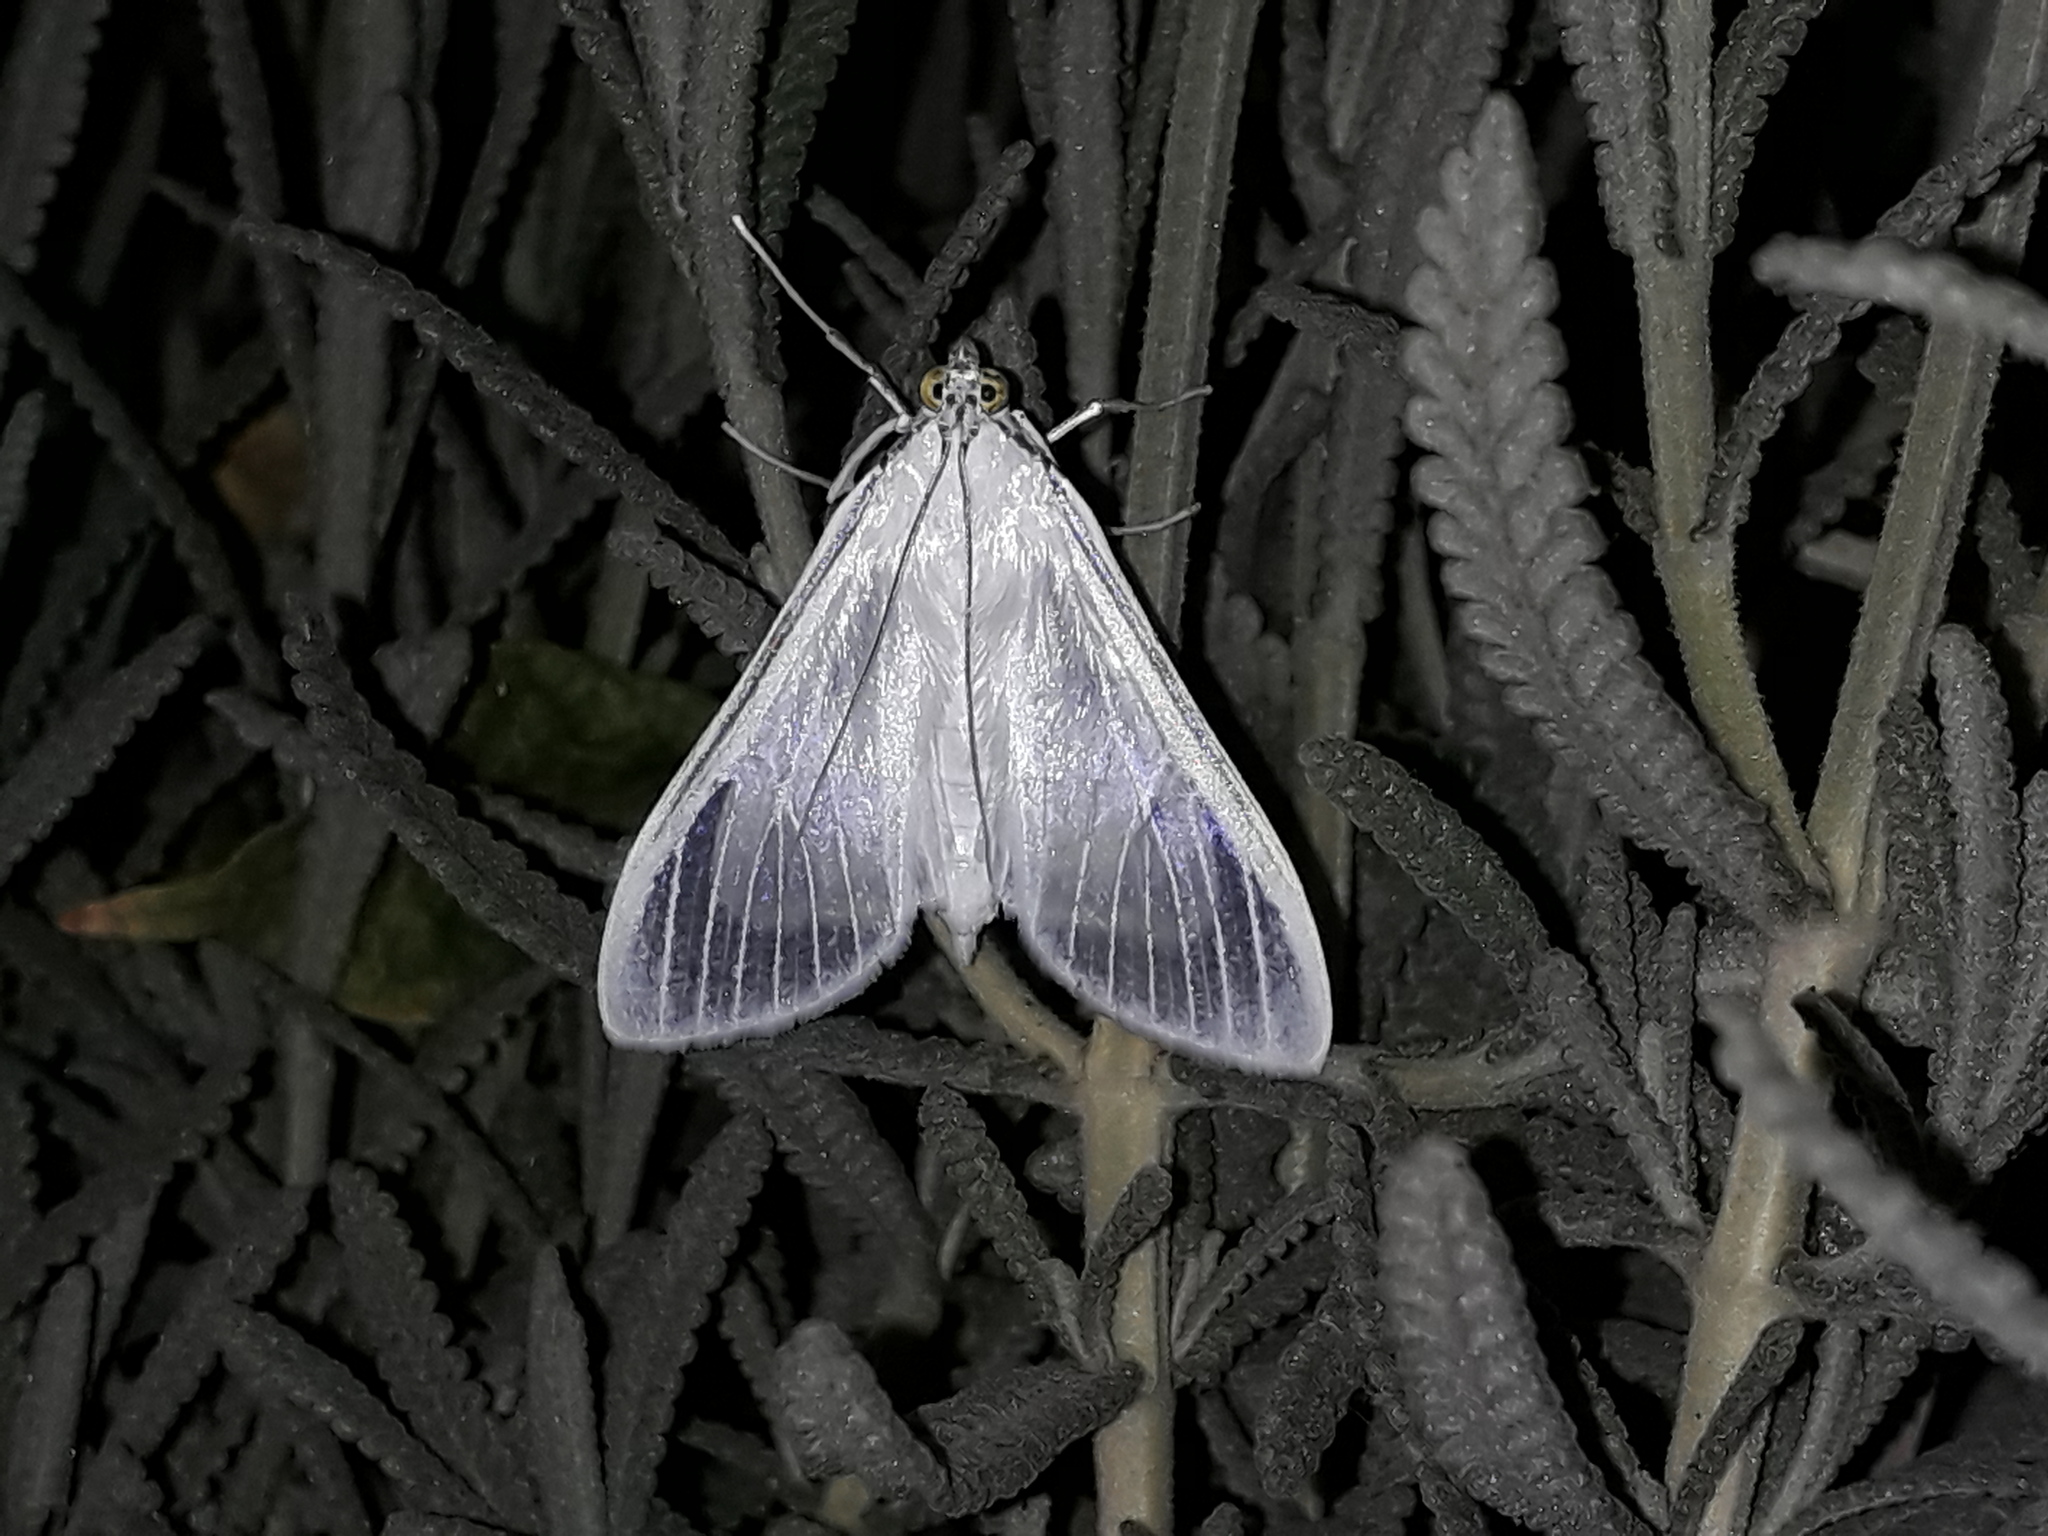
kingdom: Animalia
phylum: Arthropoda
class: Insecta
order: Lepidoptera
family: Crambidae
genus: Palpita
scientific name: Palpita flegia
